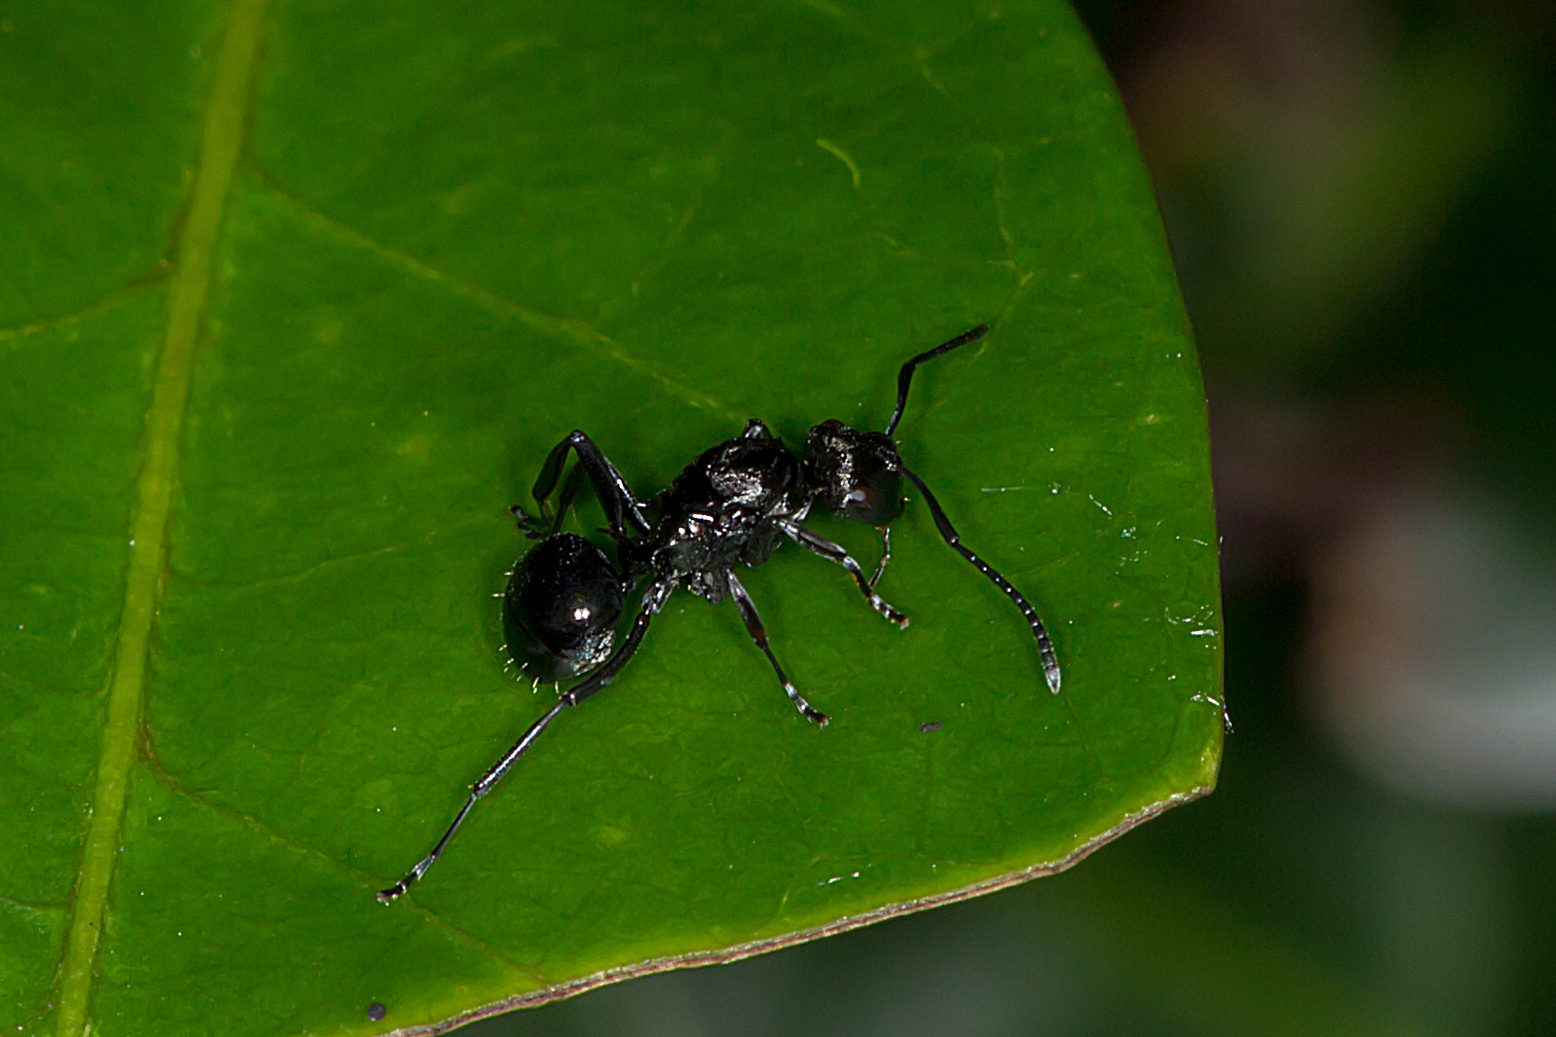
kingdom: Animalia
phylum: Arthropoda
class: Insecta
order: Hymenoptera
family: Formicidae
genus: Polyrhachis
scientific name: Polyrhachis clio
